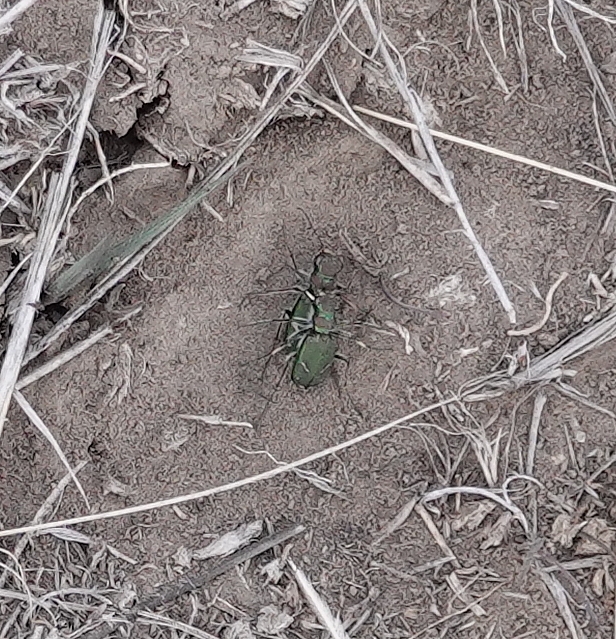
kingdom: Animalia
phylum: Arthropoda
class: Insecta
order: Coleoptera
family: Carabidae
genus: Cicindela
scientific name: Cicindela purpurea
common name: Cow path tiger beetle
